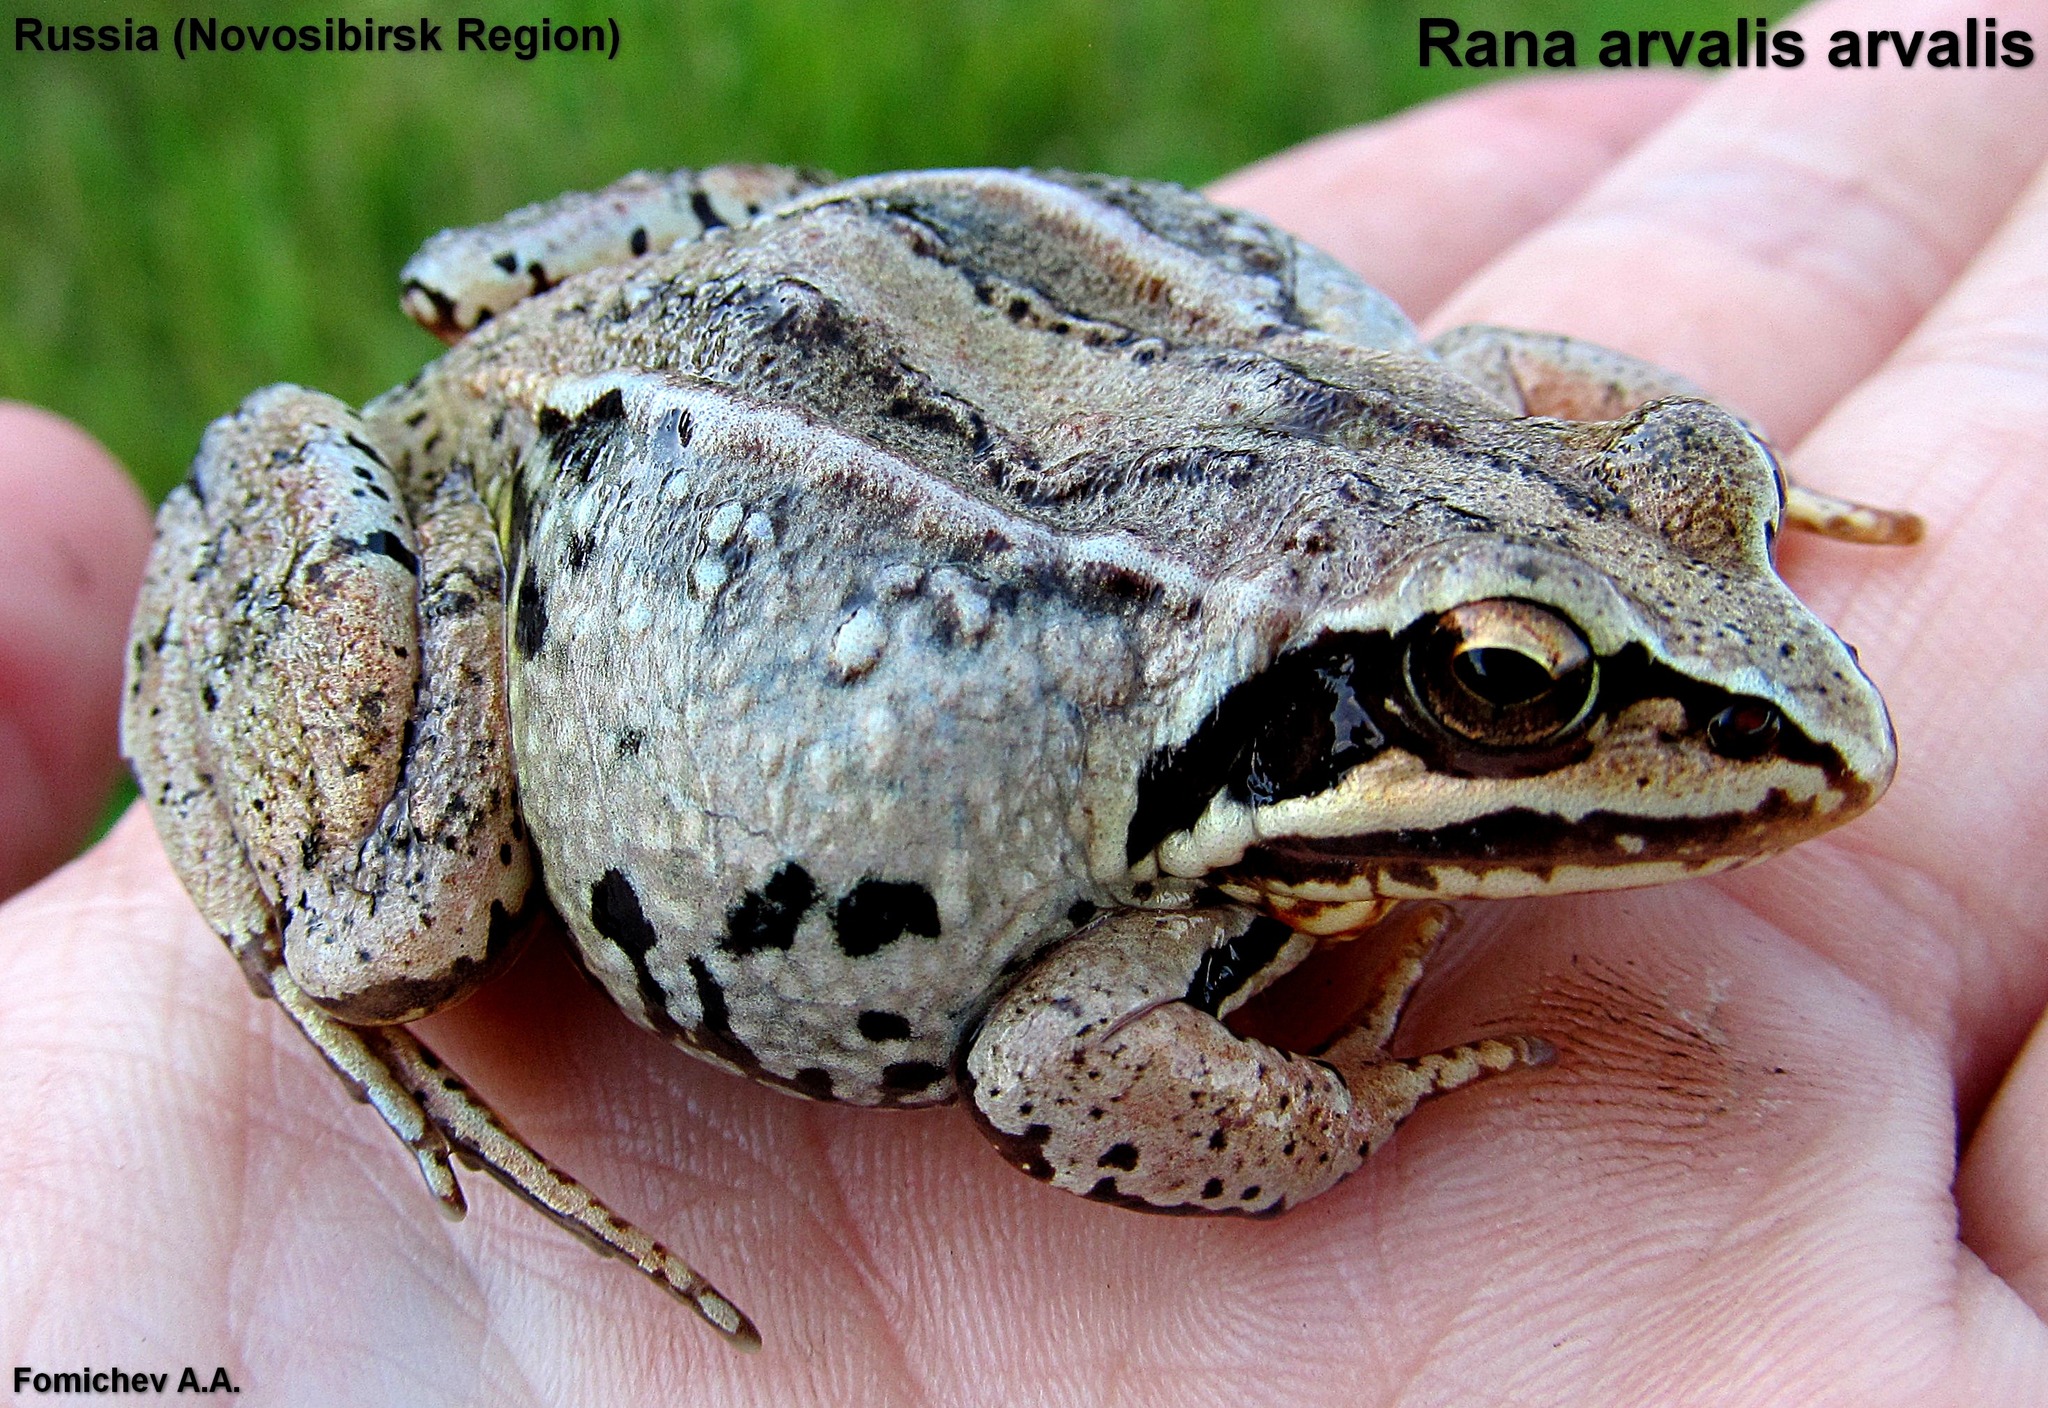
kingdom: Animalia
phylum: Chordata
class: Amphibia
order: Anura
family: Ranidae
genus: Rana
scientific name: Rana arvalis
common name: Moor frog
